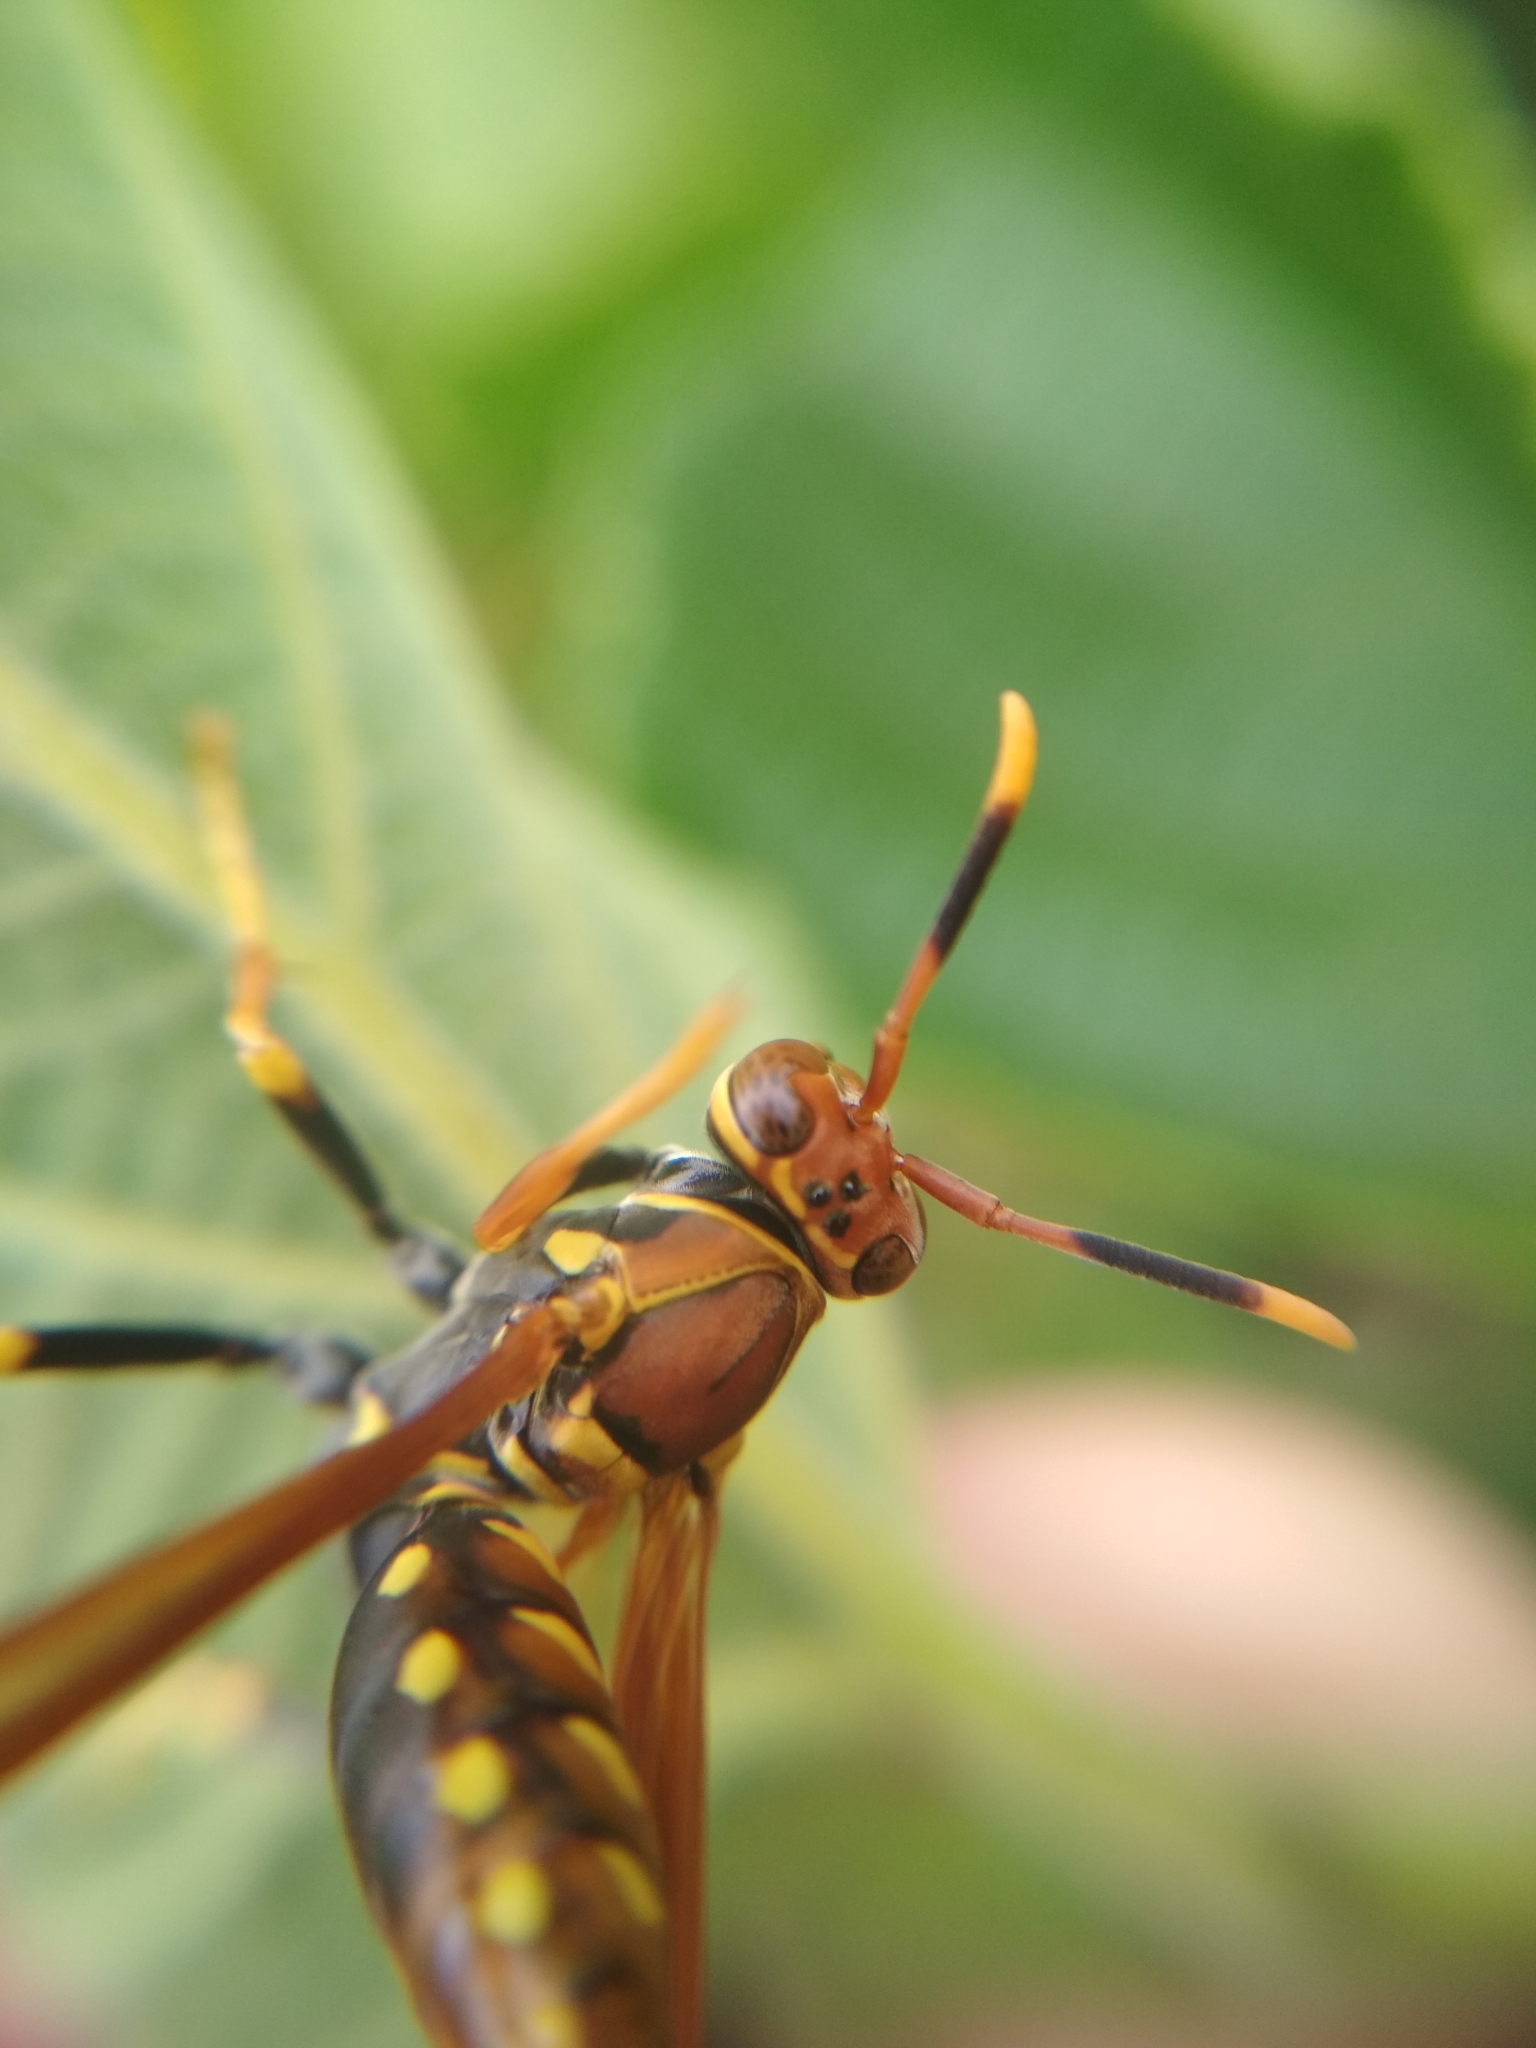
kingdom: Animalia
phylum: Arthropoda
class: Insecta
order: Hymenoptera
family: Eumenidae
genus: Polistes
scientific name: Polistes versicolor
